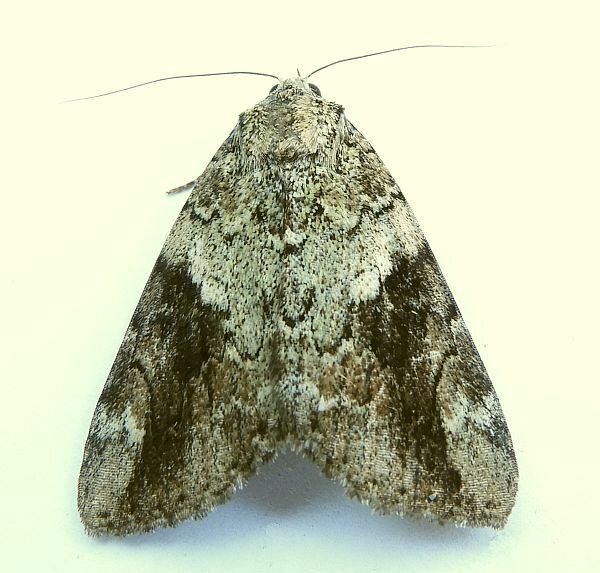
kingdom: Animalia
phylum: Arthropoda
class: Insecta
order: Lepidoptera
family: Erebidae
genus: Catocala
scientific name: Catocala micronympha
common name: Little nymph underwing
